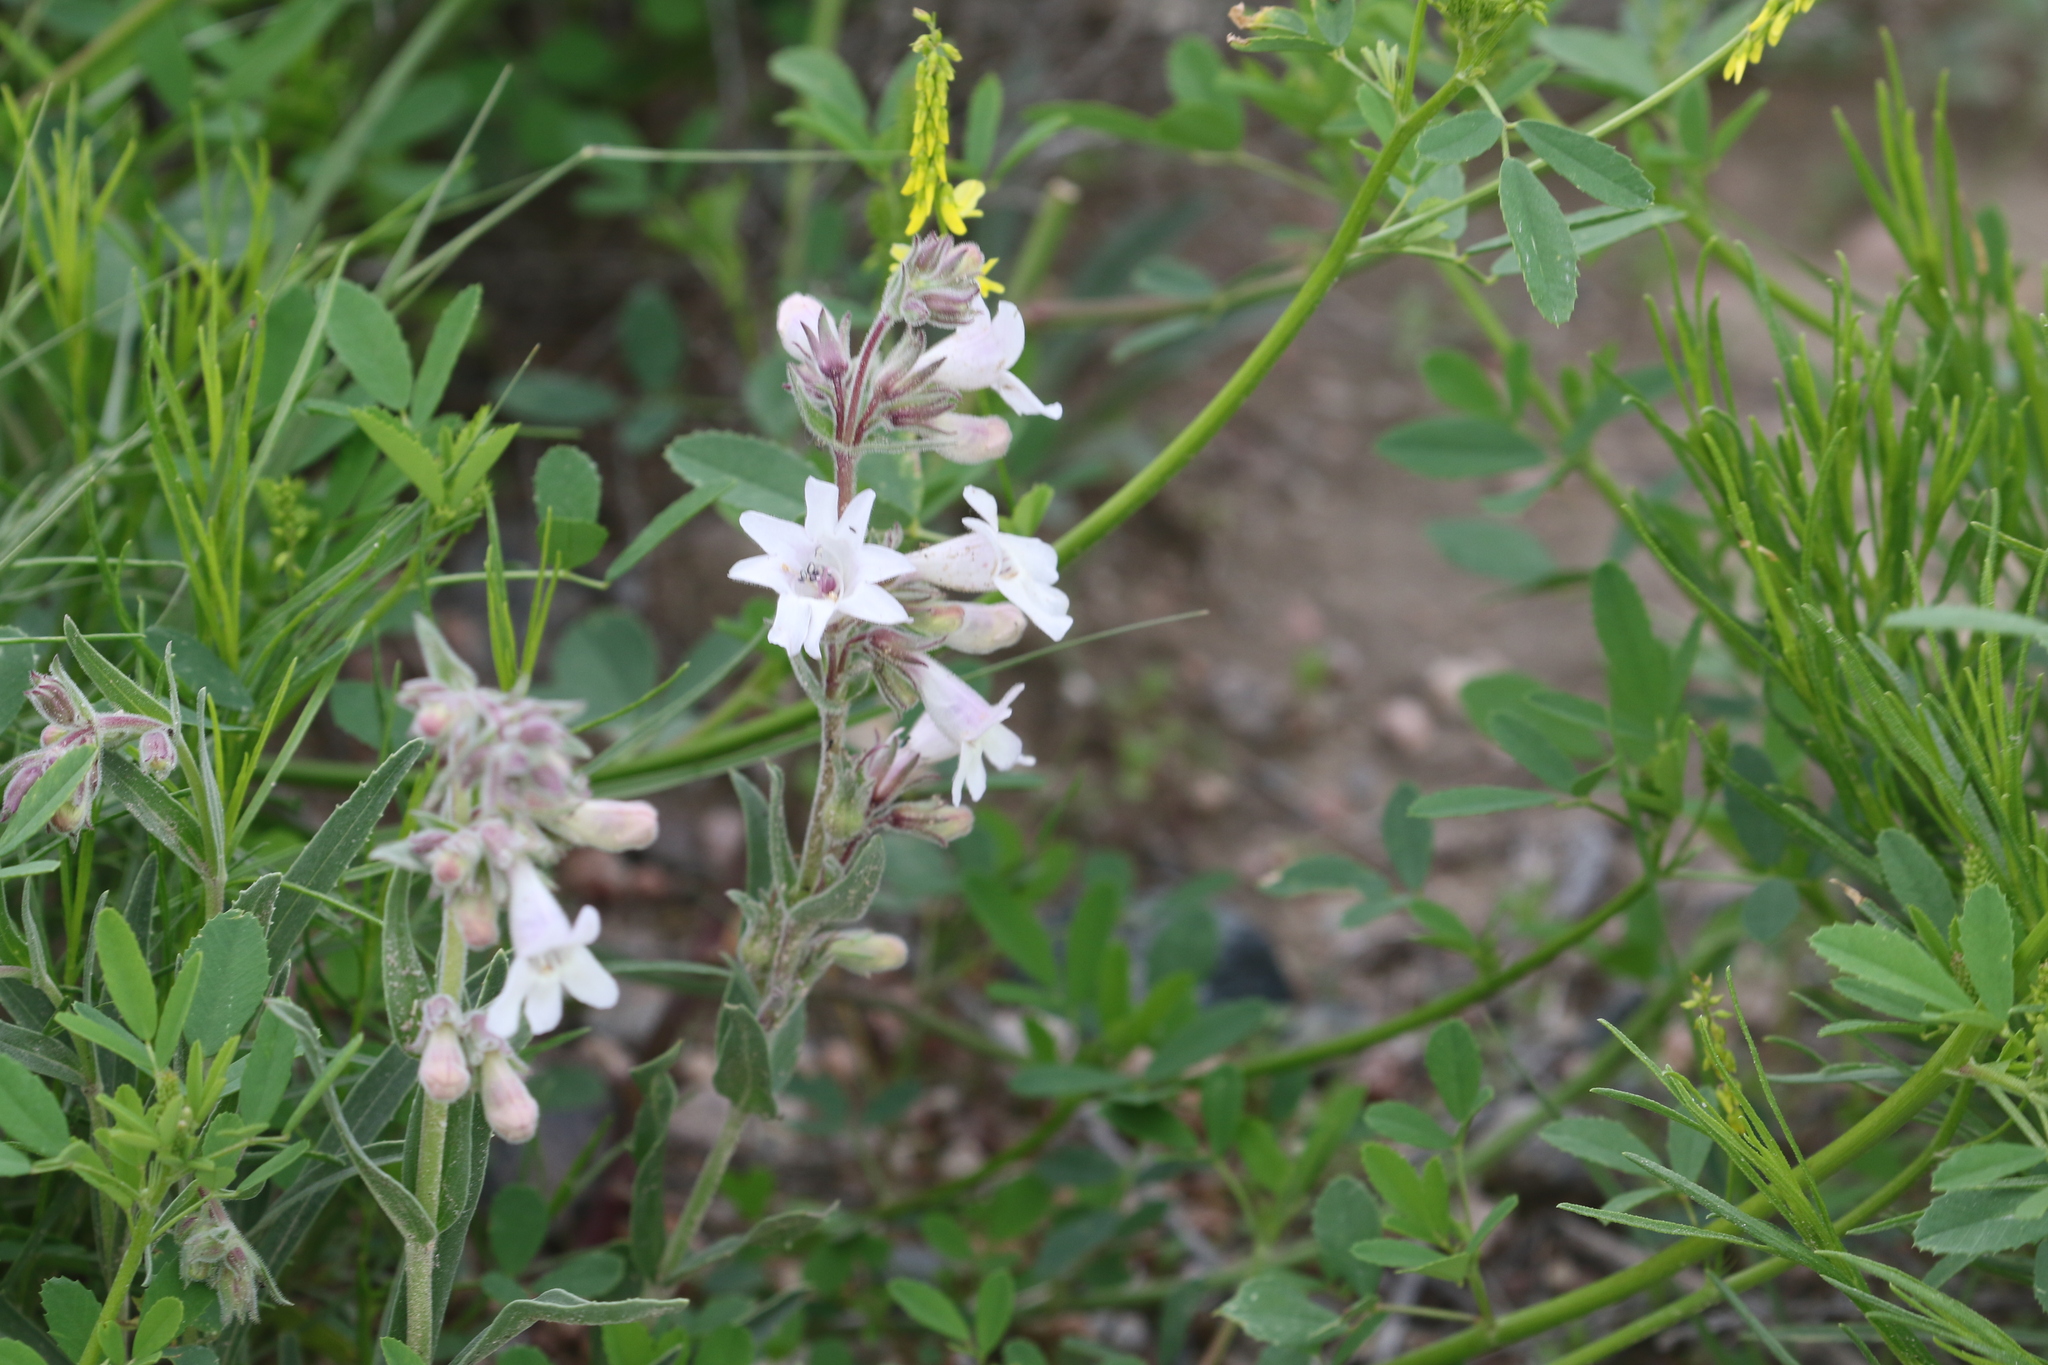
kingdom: Plantae
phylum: Tracheophyta
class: Magnoliopsida
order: Lamiales
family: Plantaginaceae
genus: Penstemon
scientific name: Penstemon albidus
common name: White beardtongue
